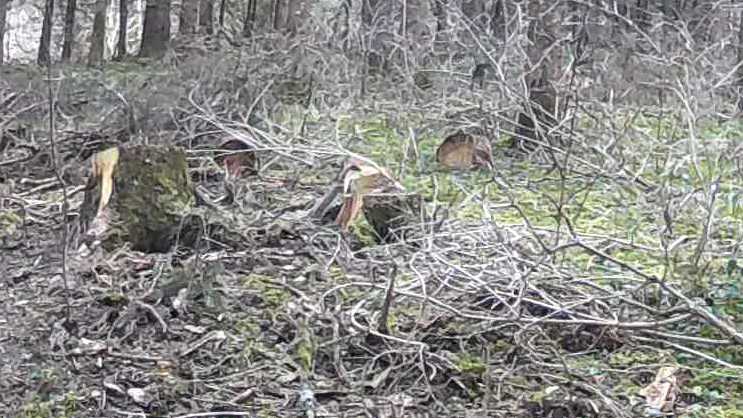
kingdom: Animalia
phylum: Chordata
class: Mammalia
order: Carnivora
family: Mustelidae
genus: Mustela
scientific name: Mustela erminea
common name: Stoat
